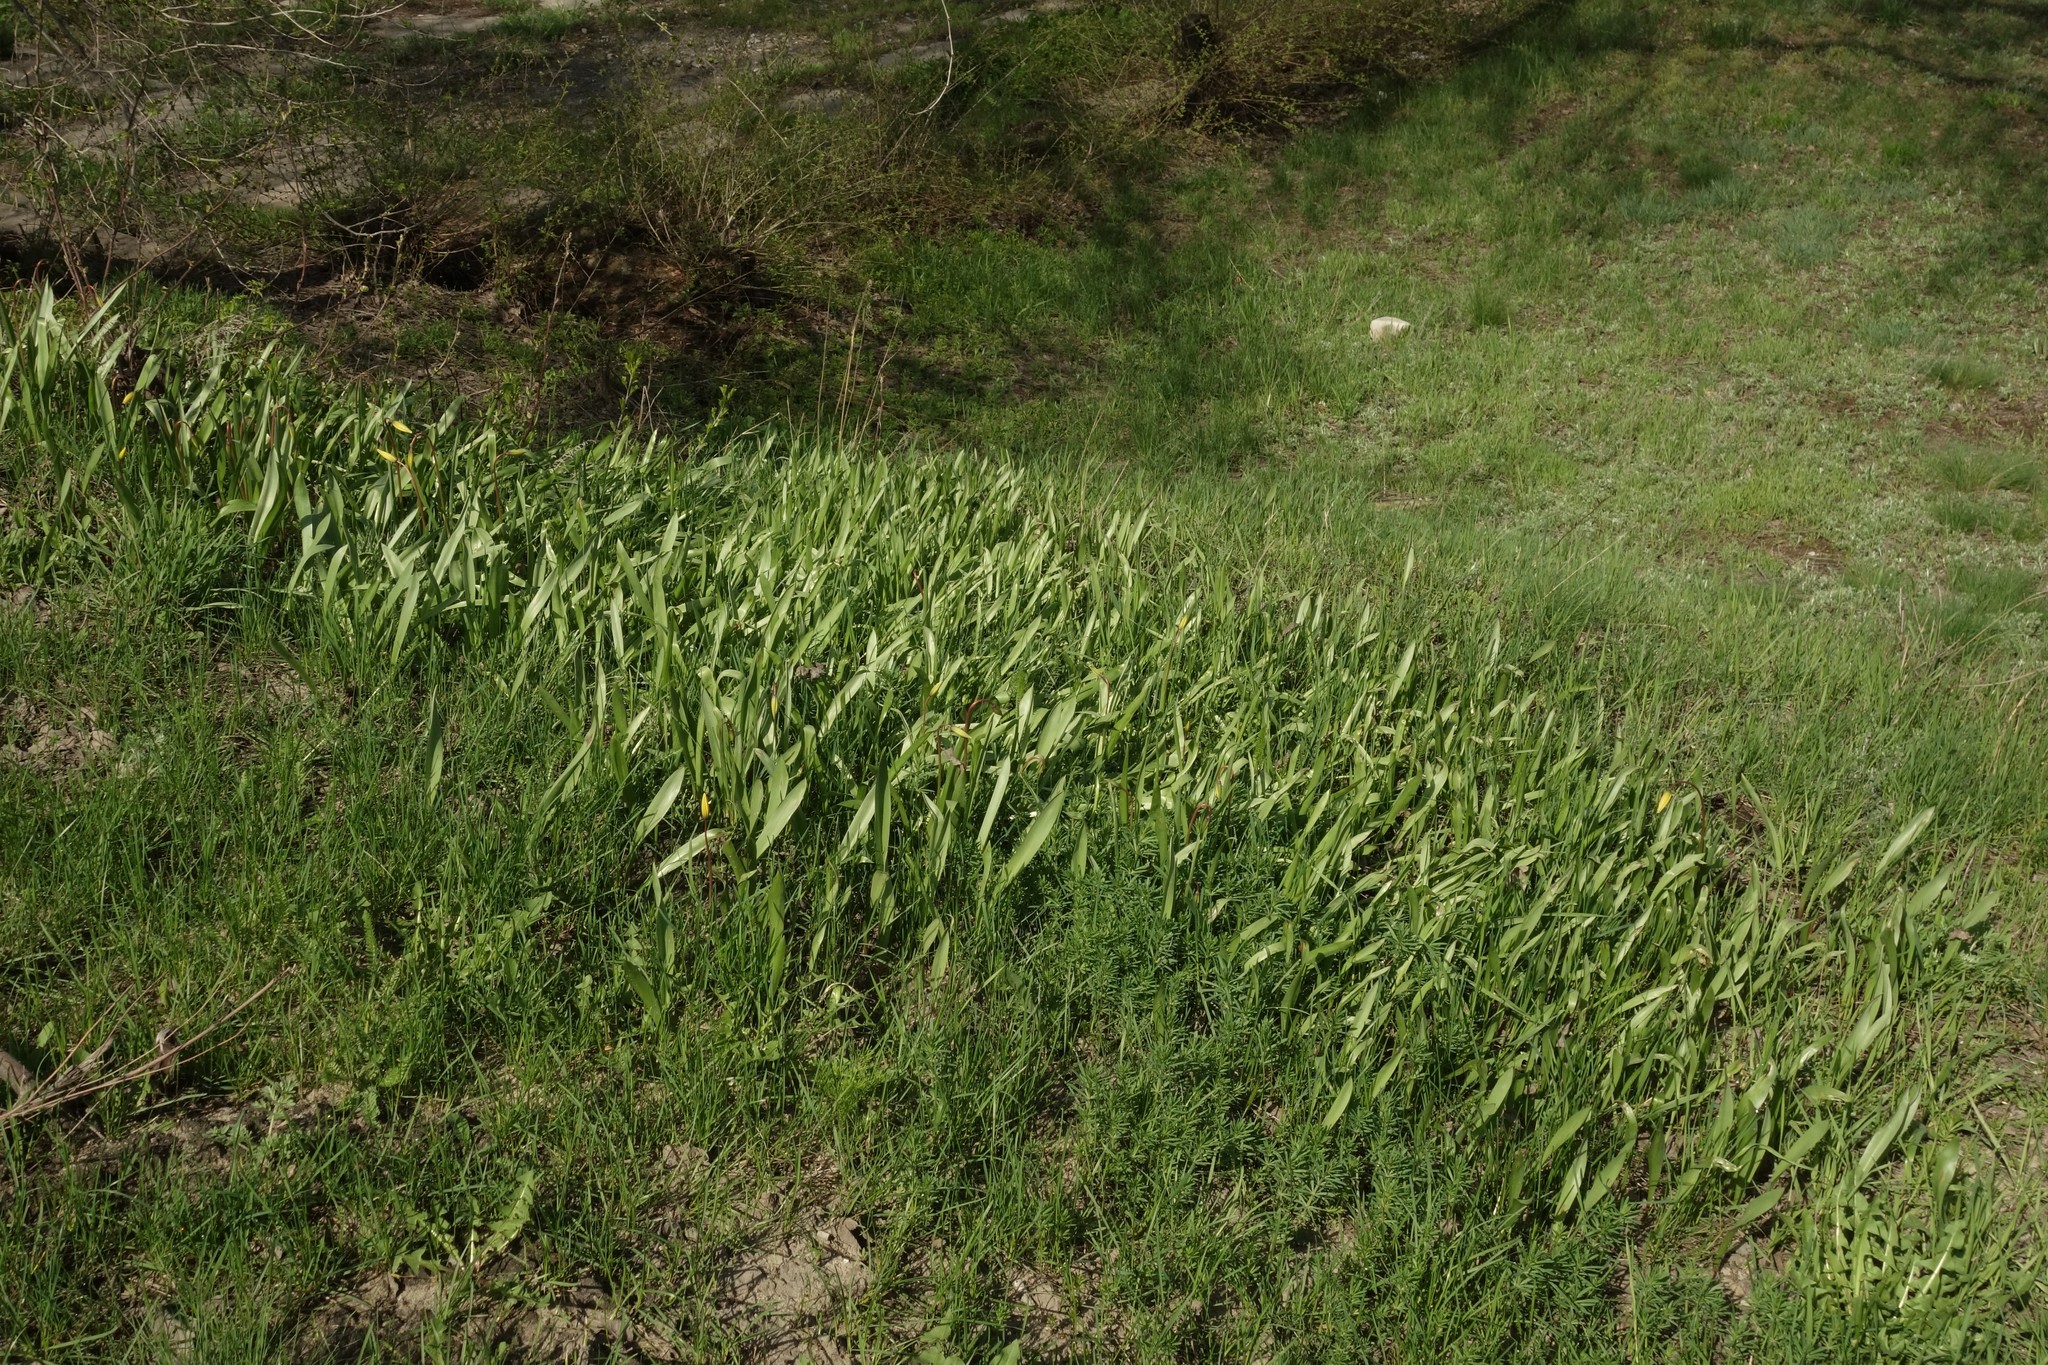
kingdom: Plantae
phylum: Tracheophyta
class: Liliopsida
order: Liliales
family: Liliaceae
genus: Tulipa
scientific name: Tulipa sylvestris
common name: Wild tulip
